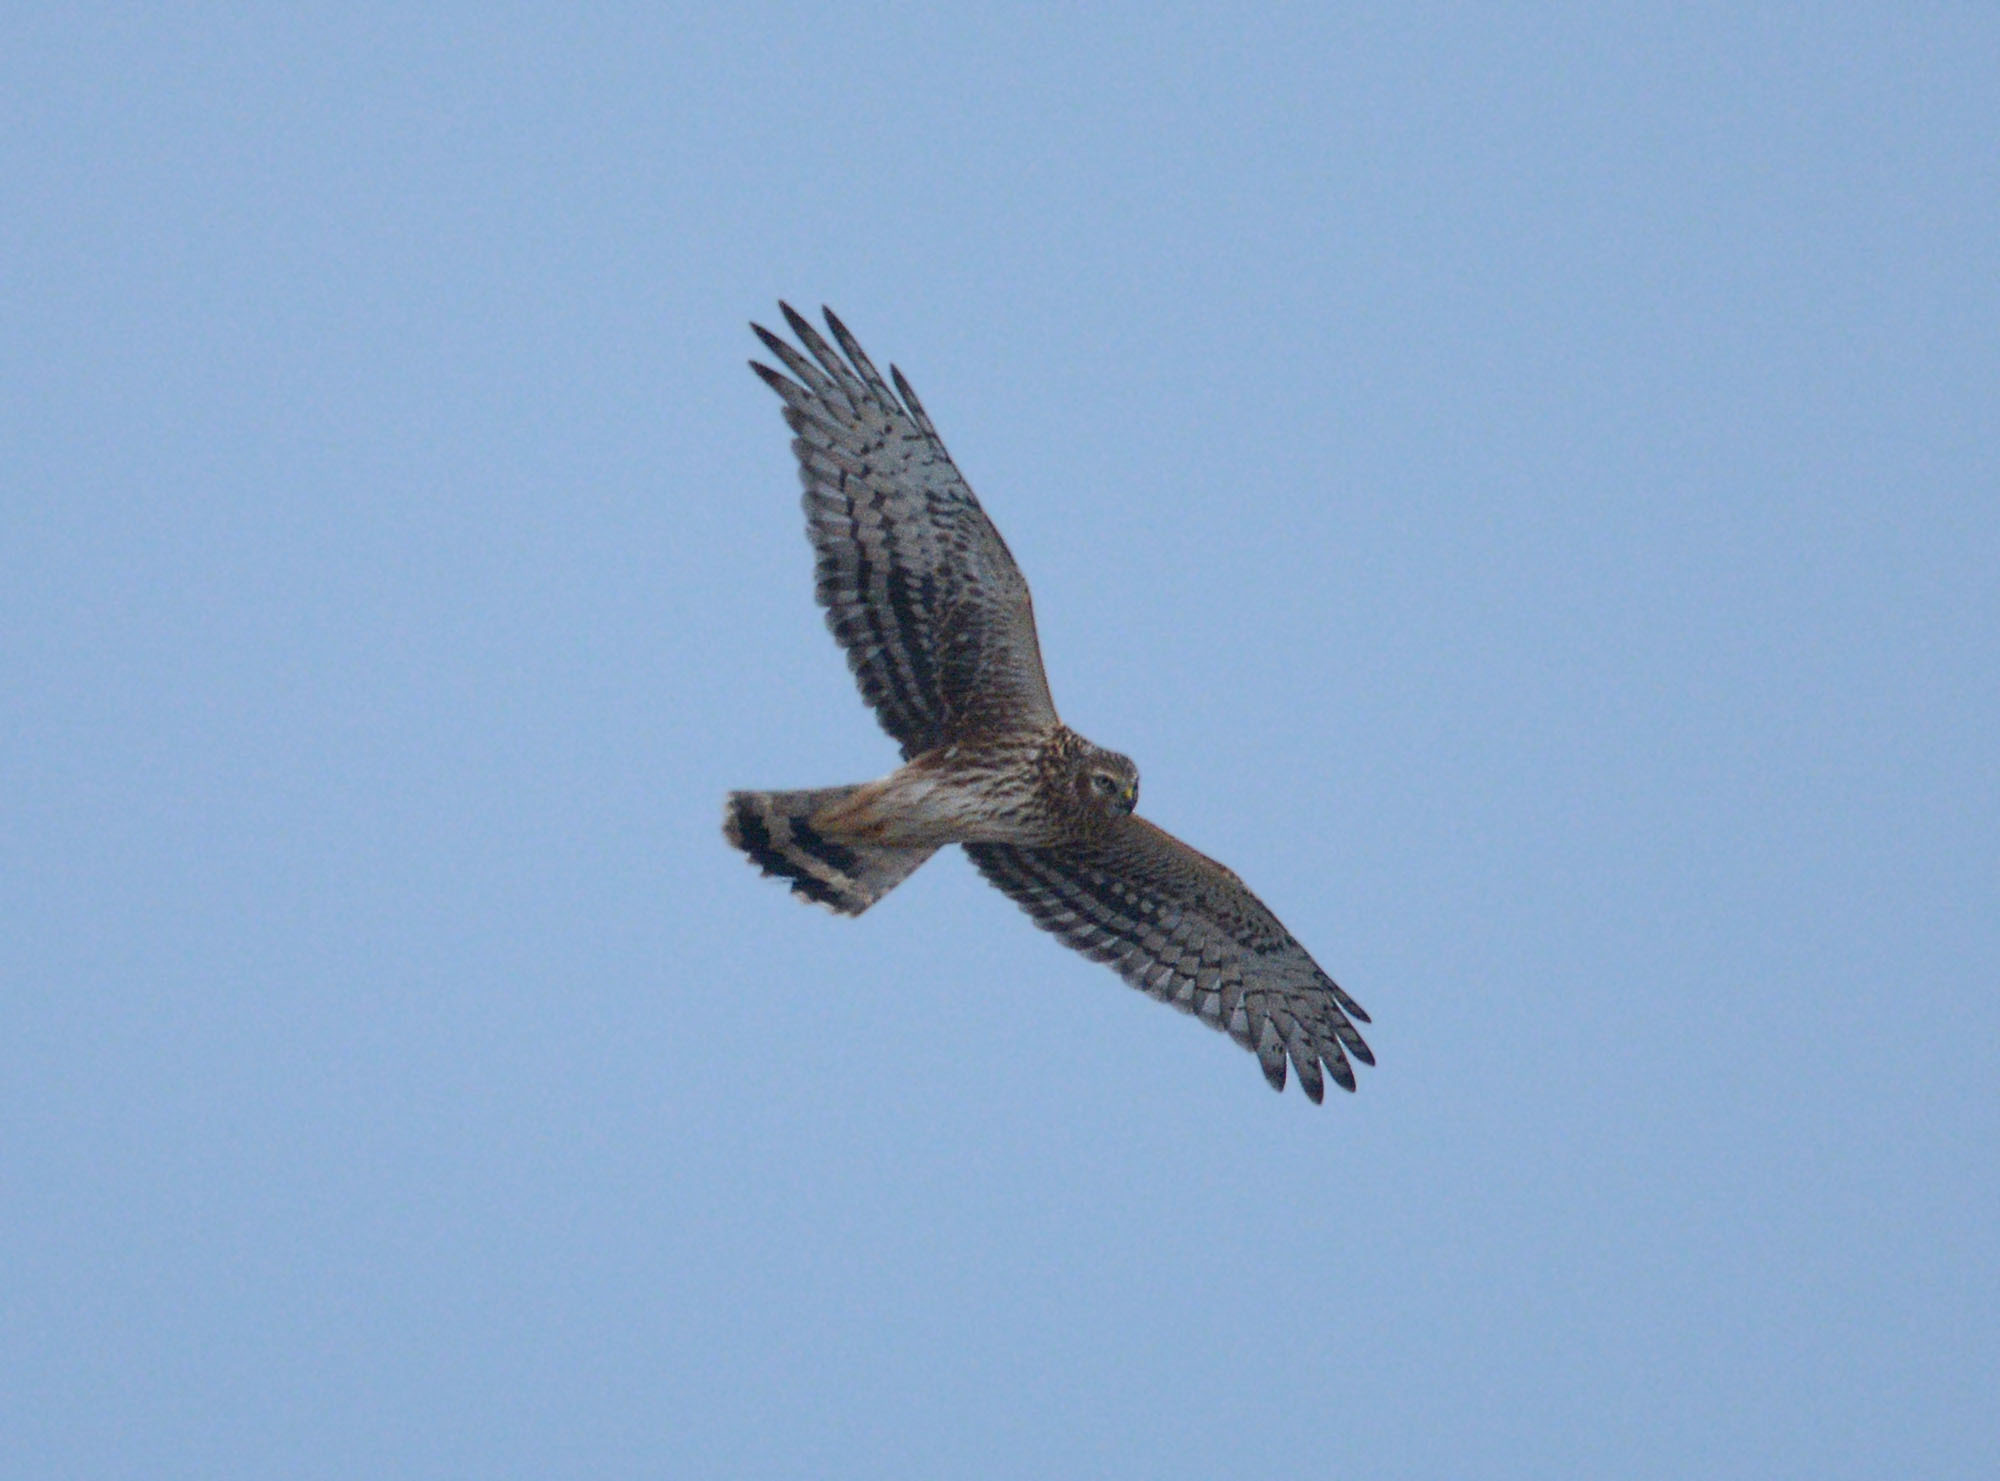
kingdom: Animalia
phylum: Chordata
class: Aves
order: Accipitriformes
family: Accipitridae
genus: Circus
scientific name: Circus cyaneus
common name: Hen harrier
